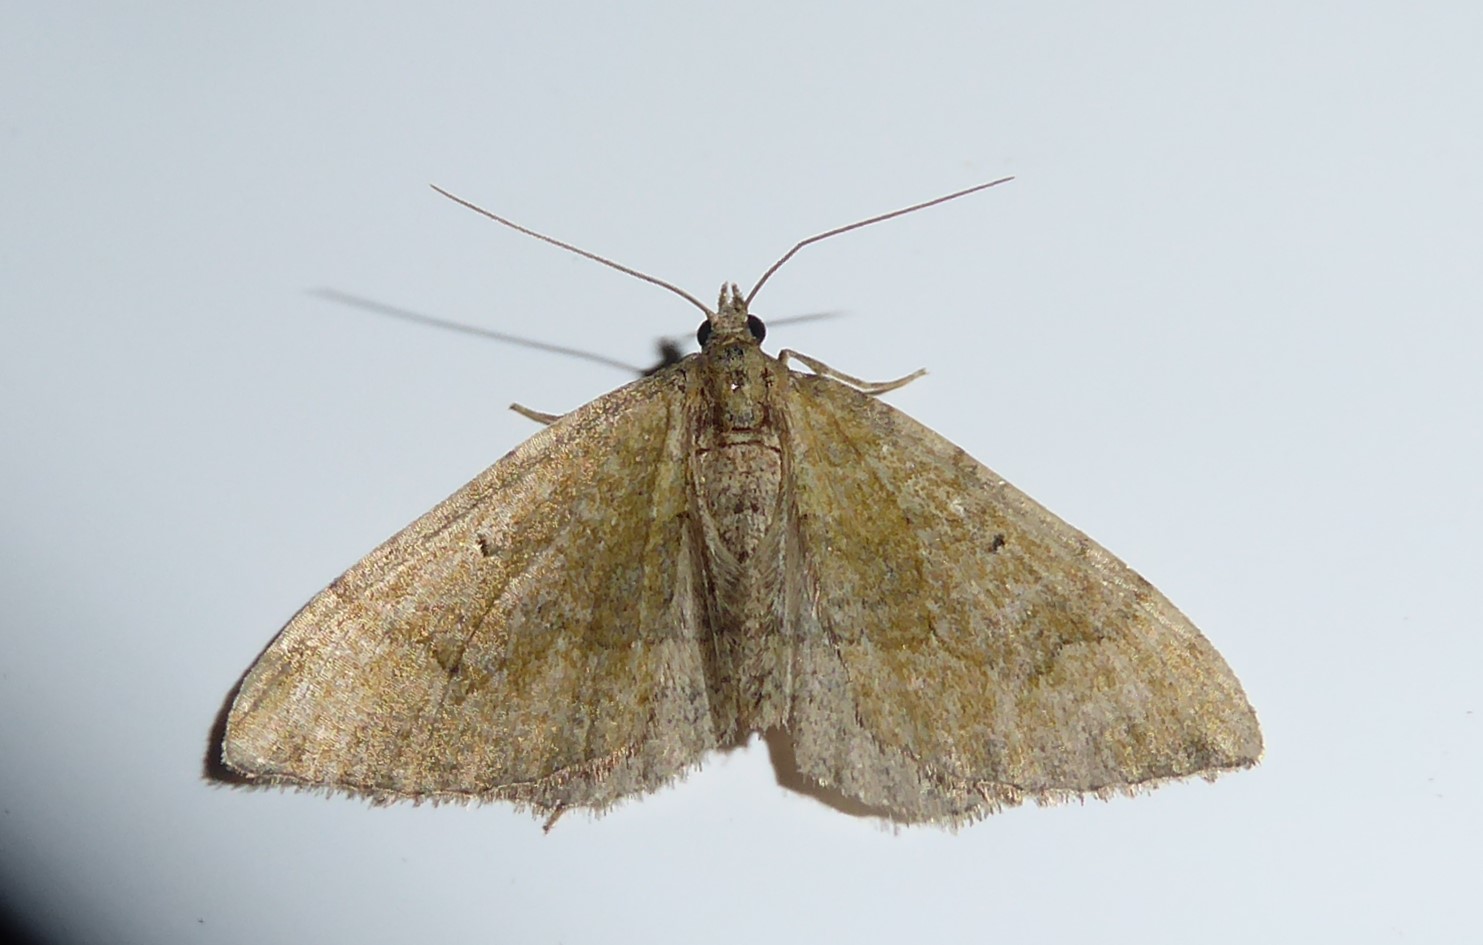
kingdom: Animalia
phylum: Arthropoda
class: Insecta
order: Lepidoptera
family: Geometridae
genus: Epyaxa
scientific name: Epyaxa rosearia
